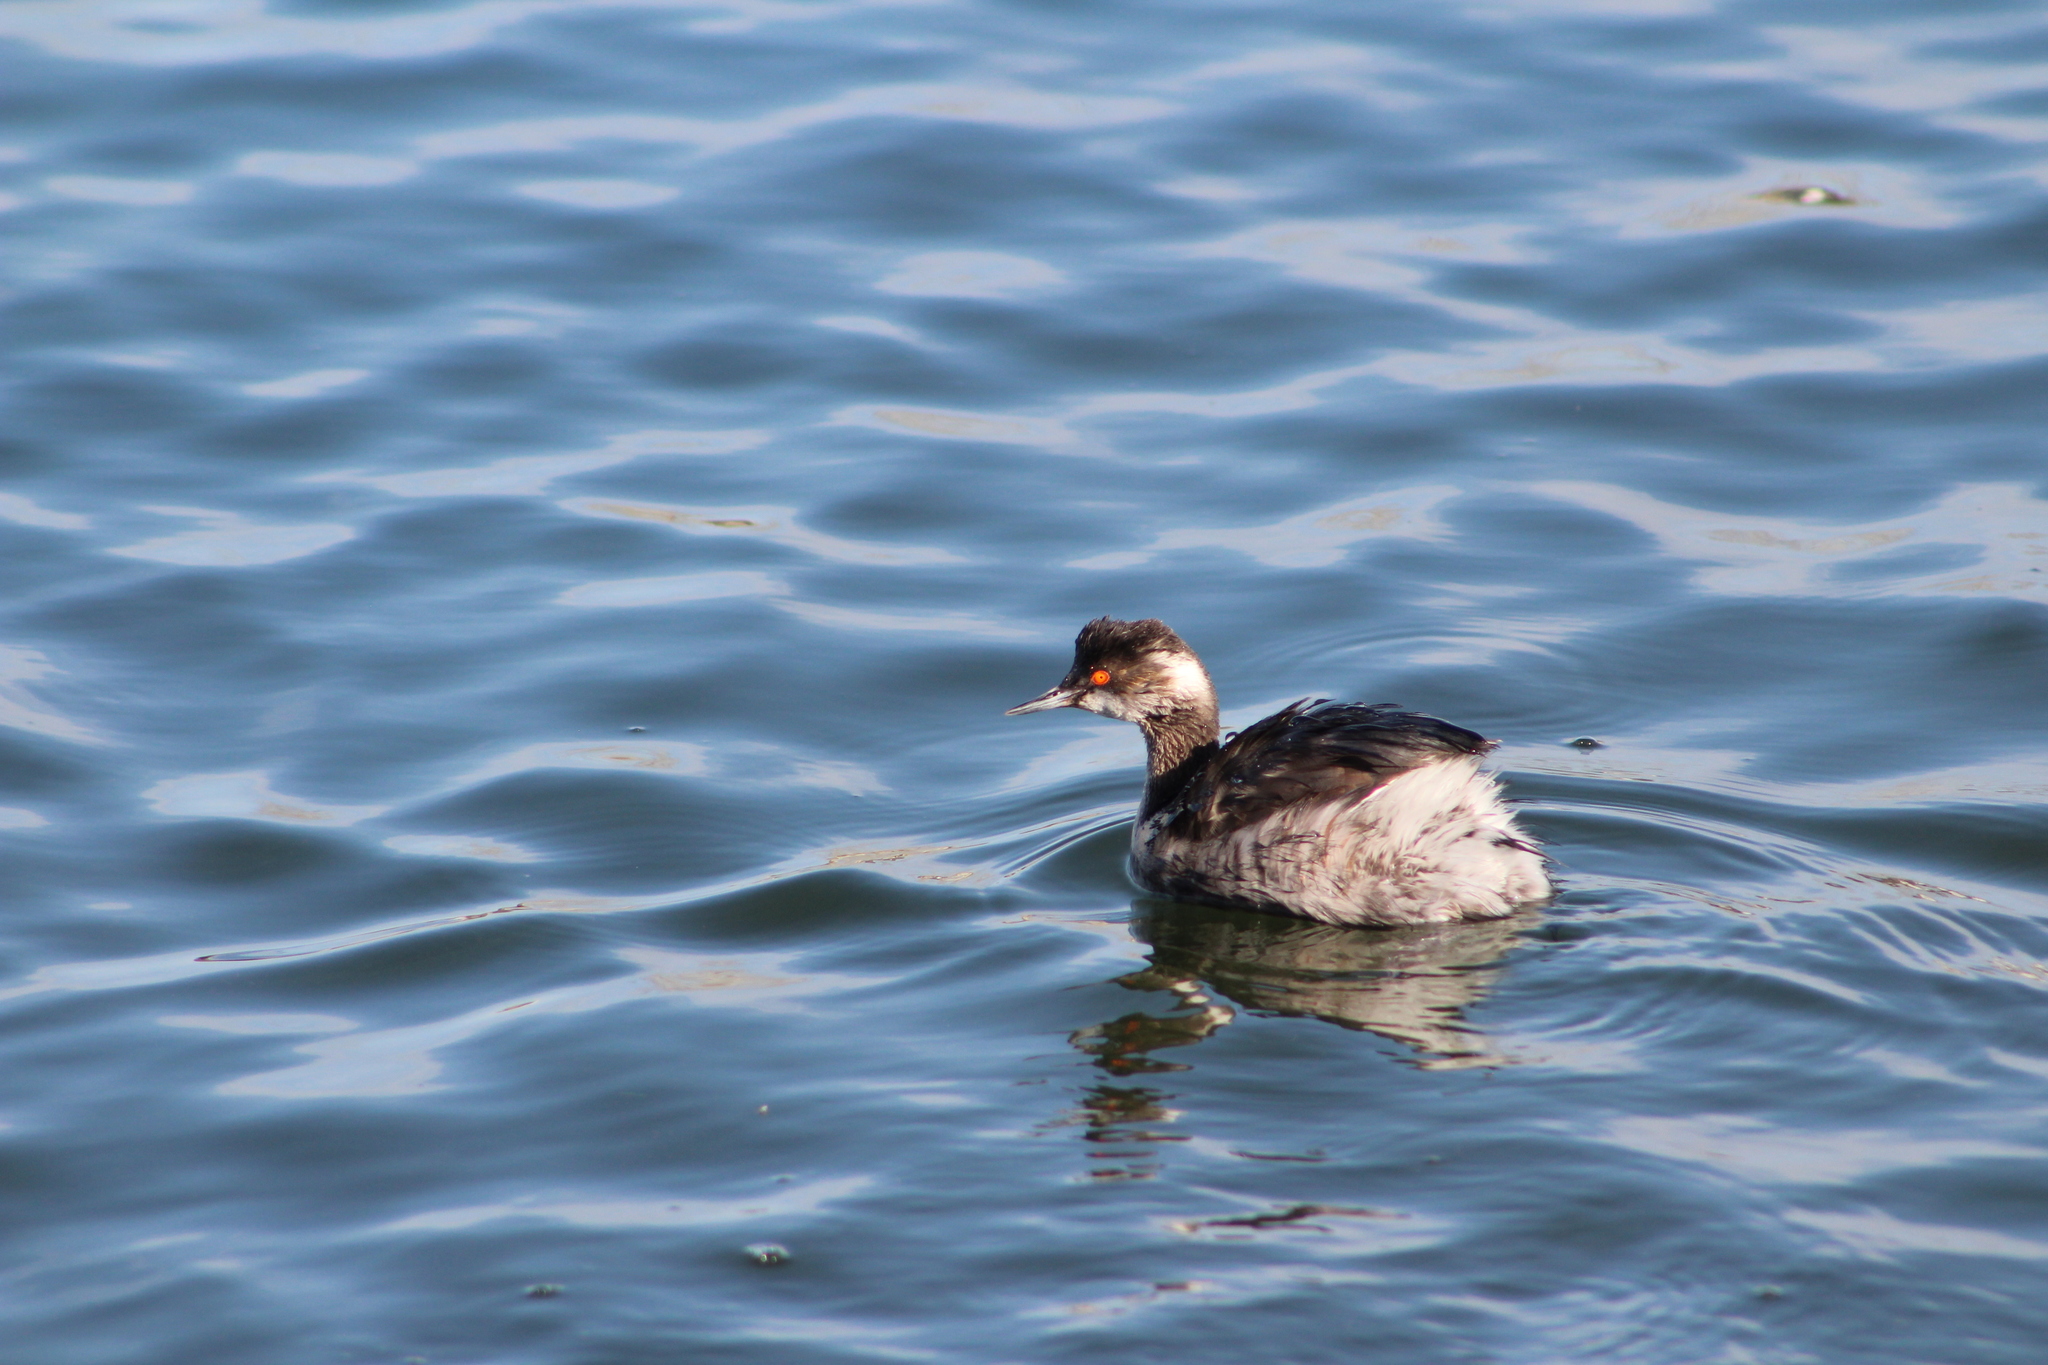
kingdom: Animalia
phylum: Chordata
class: Aves
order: Podicipediformes
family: Podicipedidae
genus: Podiceps
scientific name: Podiceps nigricollis
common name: Black-necked grebe
